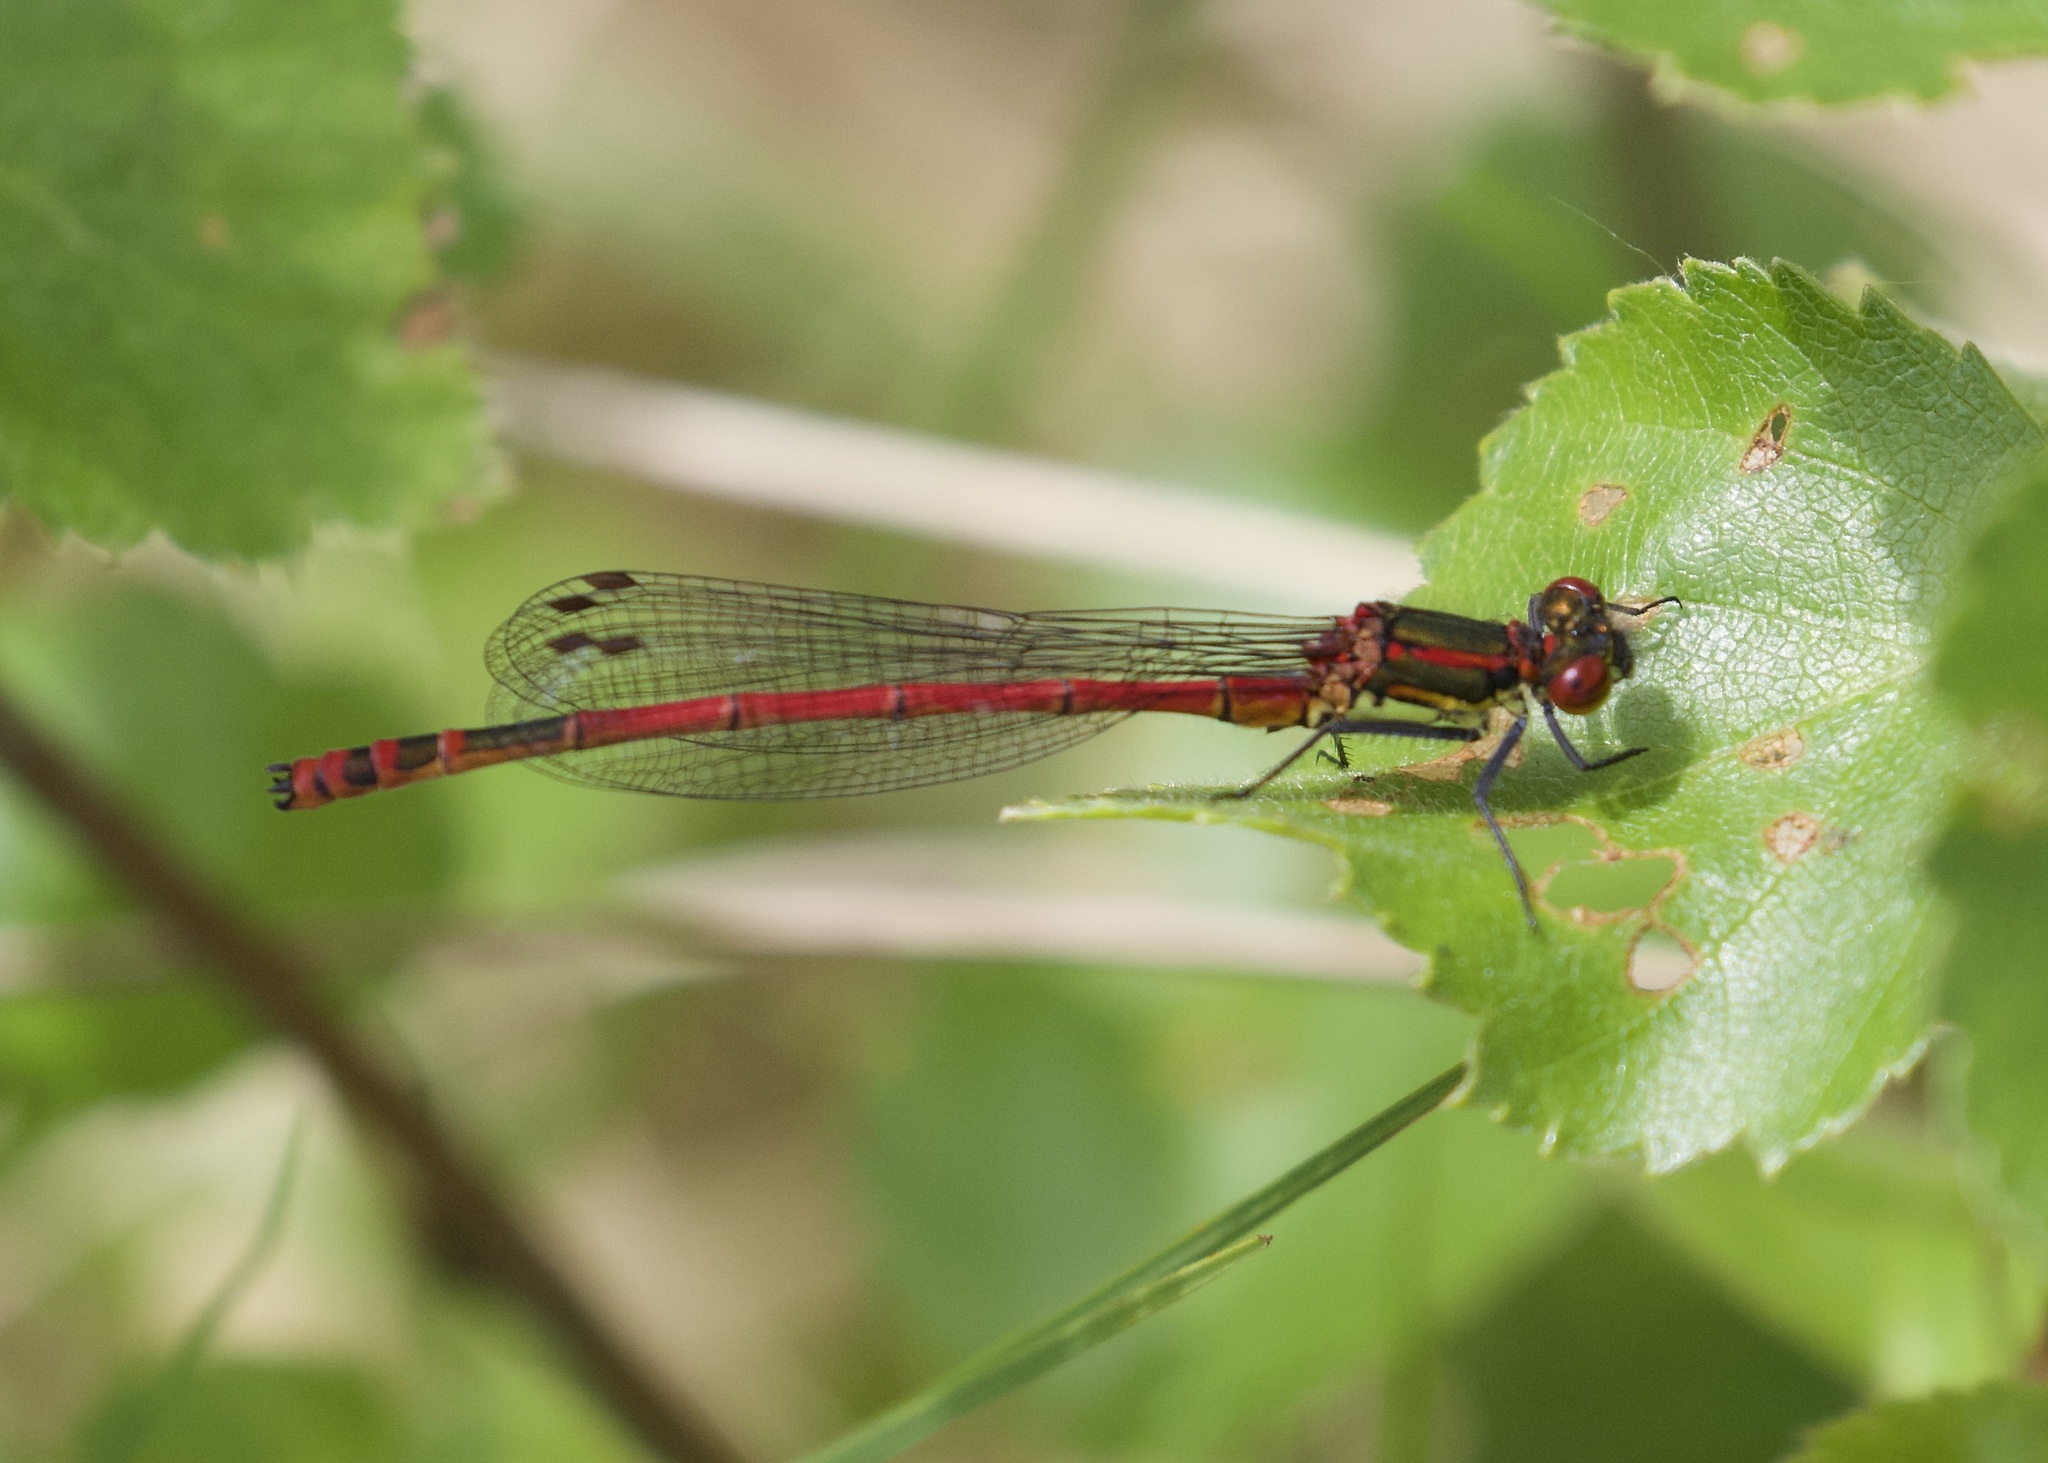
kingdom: Animalia
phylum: Arthropoda
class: Insecta
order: Odonata
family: Coenagrionidae
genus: Pyrrhosoma
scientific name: Pyrrhosoma nymphula
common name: Large red damsel
